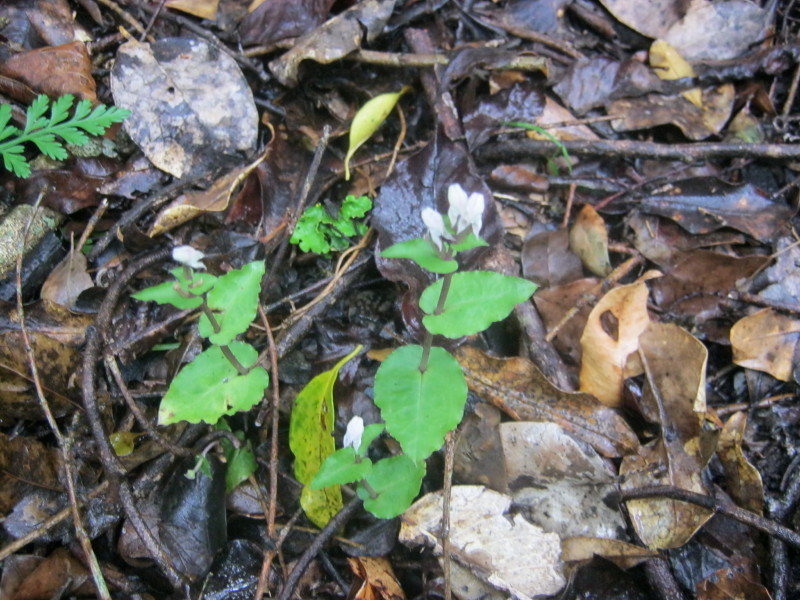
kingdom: Plantae
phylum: Tracheophyta
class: Liliopsida
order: Asparagales
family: Orchidaceae
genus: Disperis
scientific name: Disperis micrantha
